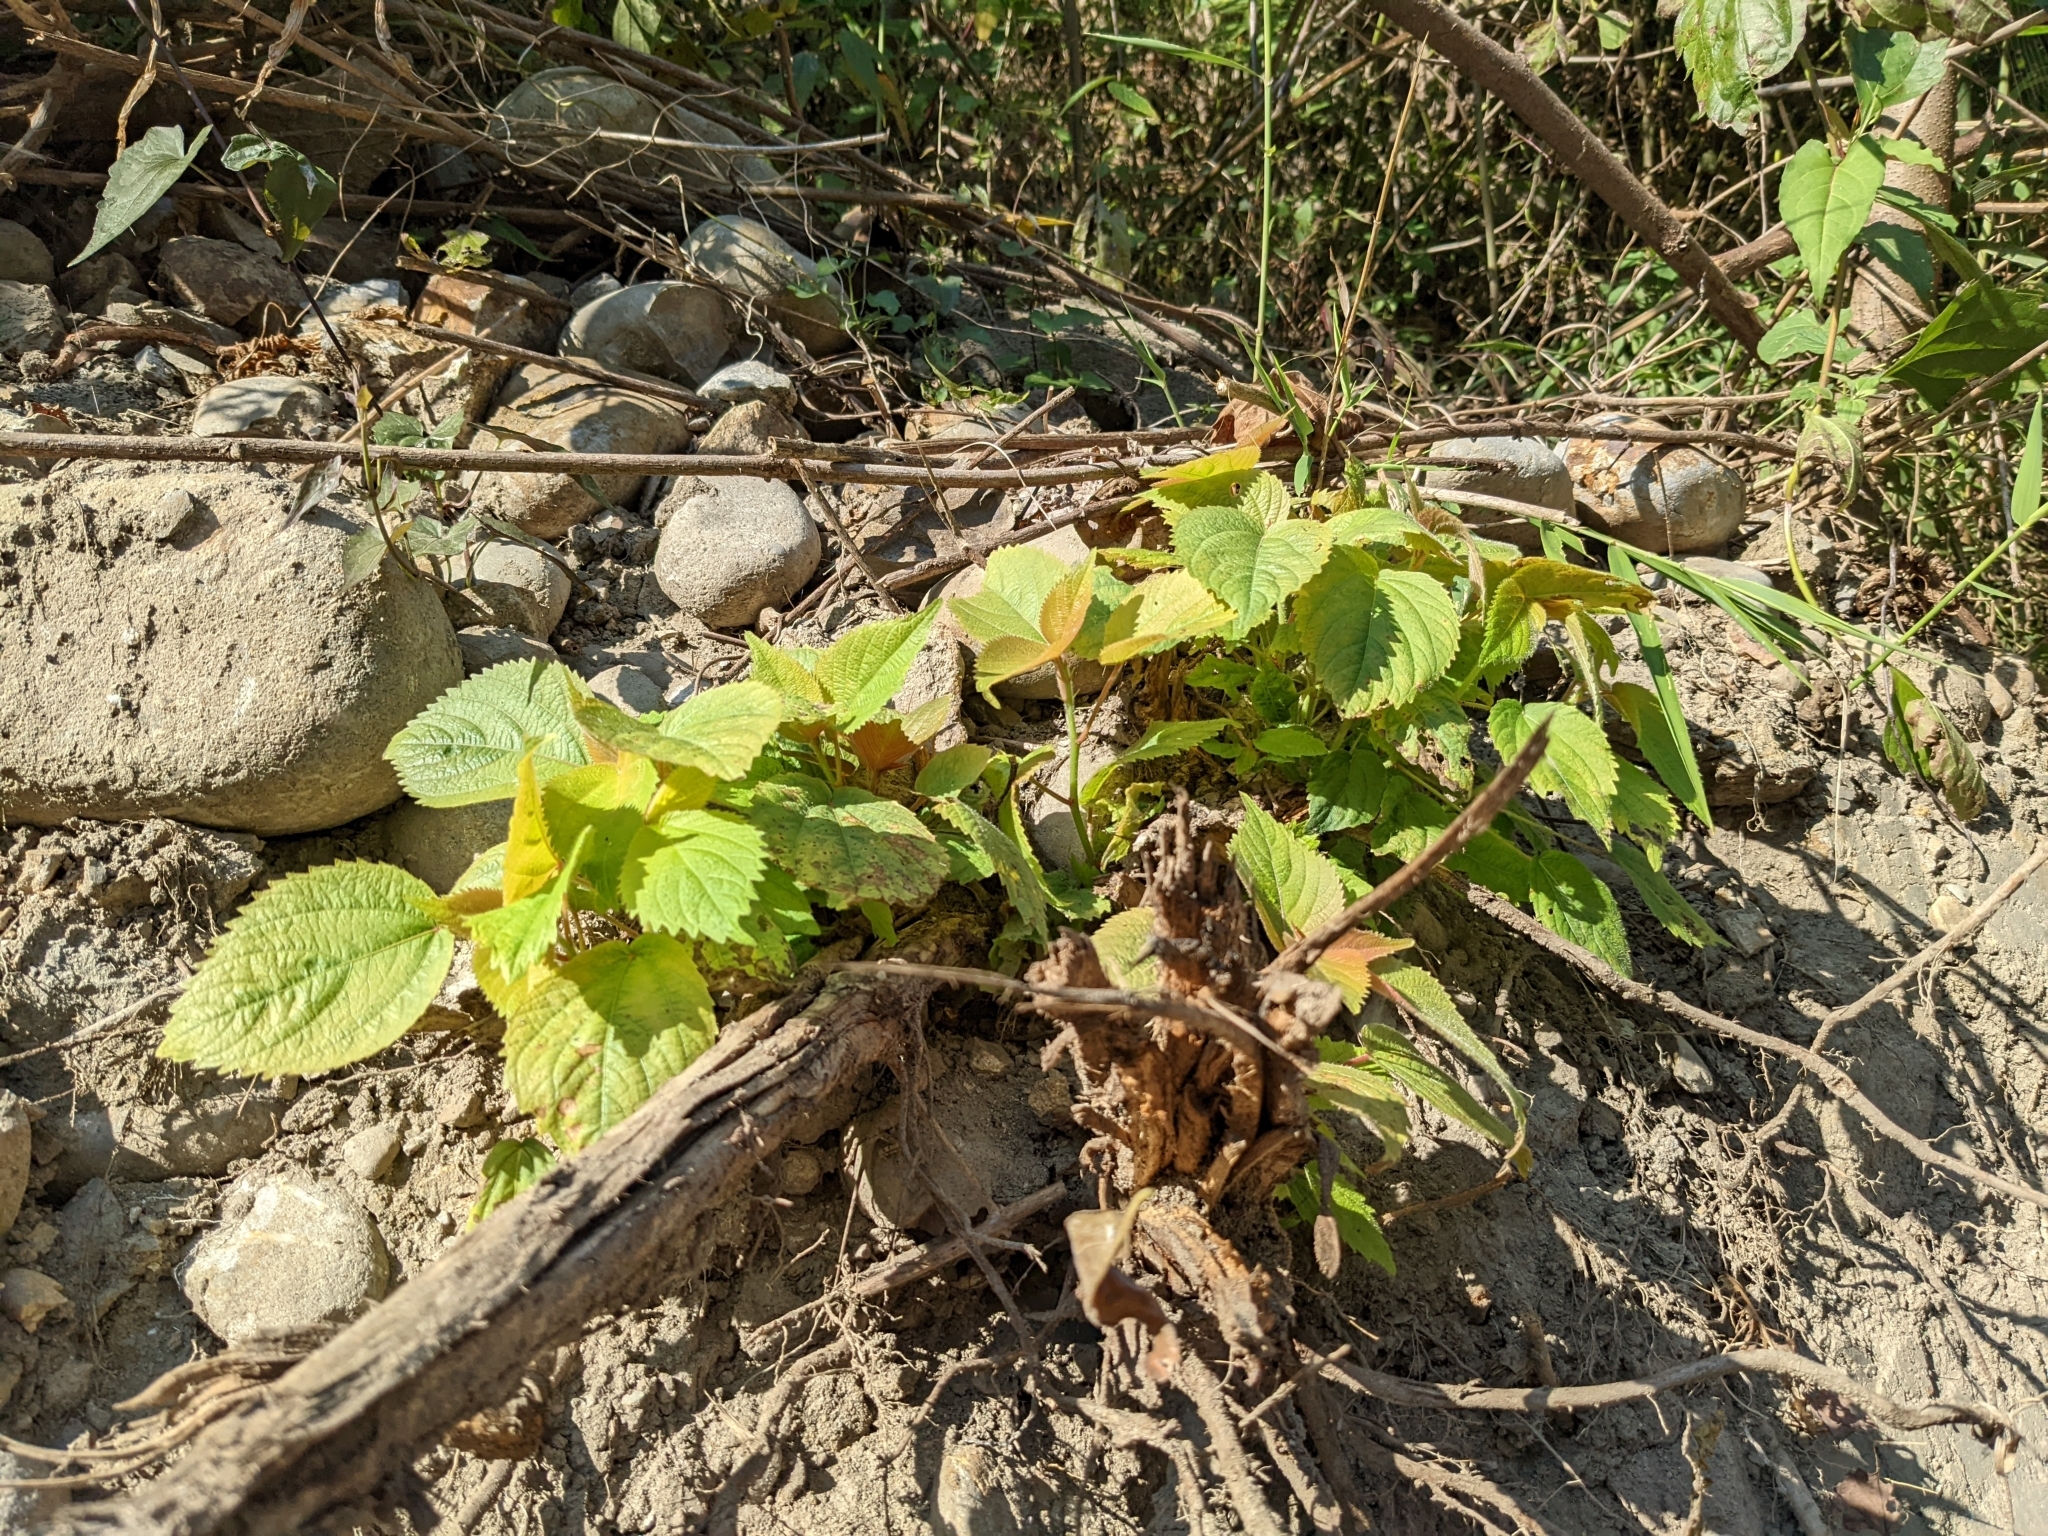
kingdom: Plantae
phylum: Tracheophyta
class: Magnoliopsida
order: Rosales
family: Urticaceae
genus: Boehmeria
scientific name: Boehmeria nivea
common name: Ramie chinese grass
